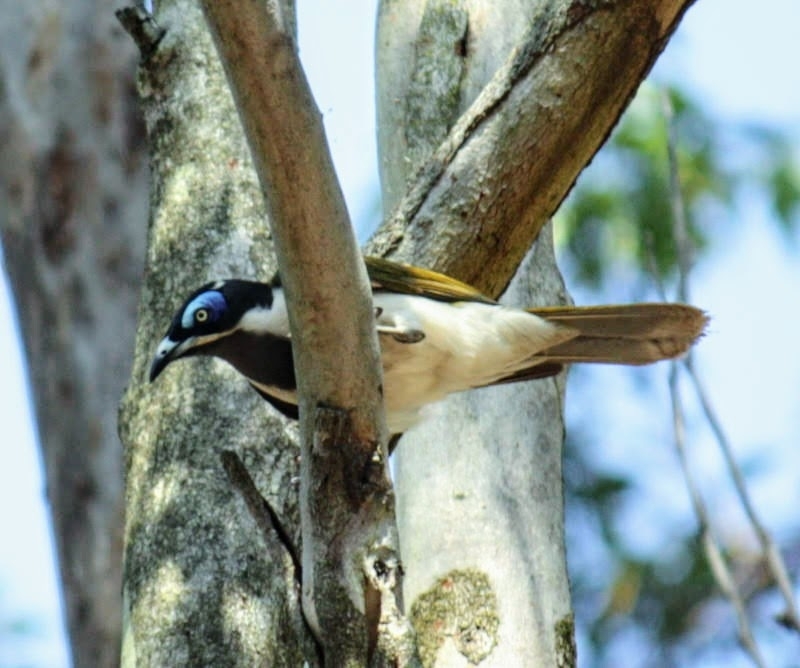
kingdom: Animalia
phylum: Chordata
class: Aves
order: Passeriformes
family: Meliphagidae
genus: Entomyzon
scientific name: Entomyzon cyanotis
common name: Blue-faced honeyeater
